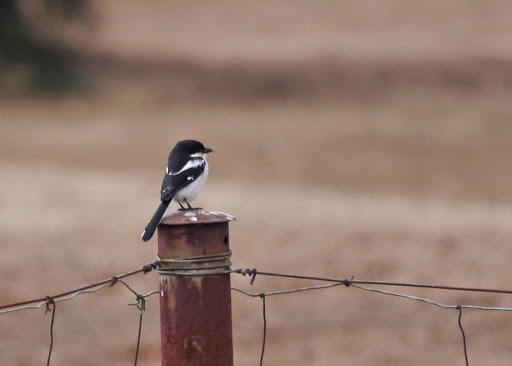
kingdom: Animalia
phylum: Chordata
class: Aves
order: Passeriformes
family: Laniidae
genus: Lanius
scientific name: Lanius collaris
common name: Southern fiscal
